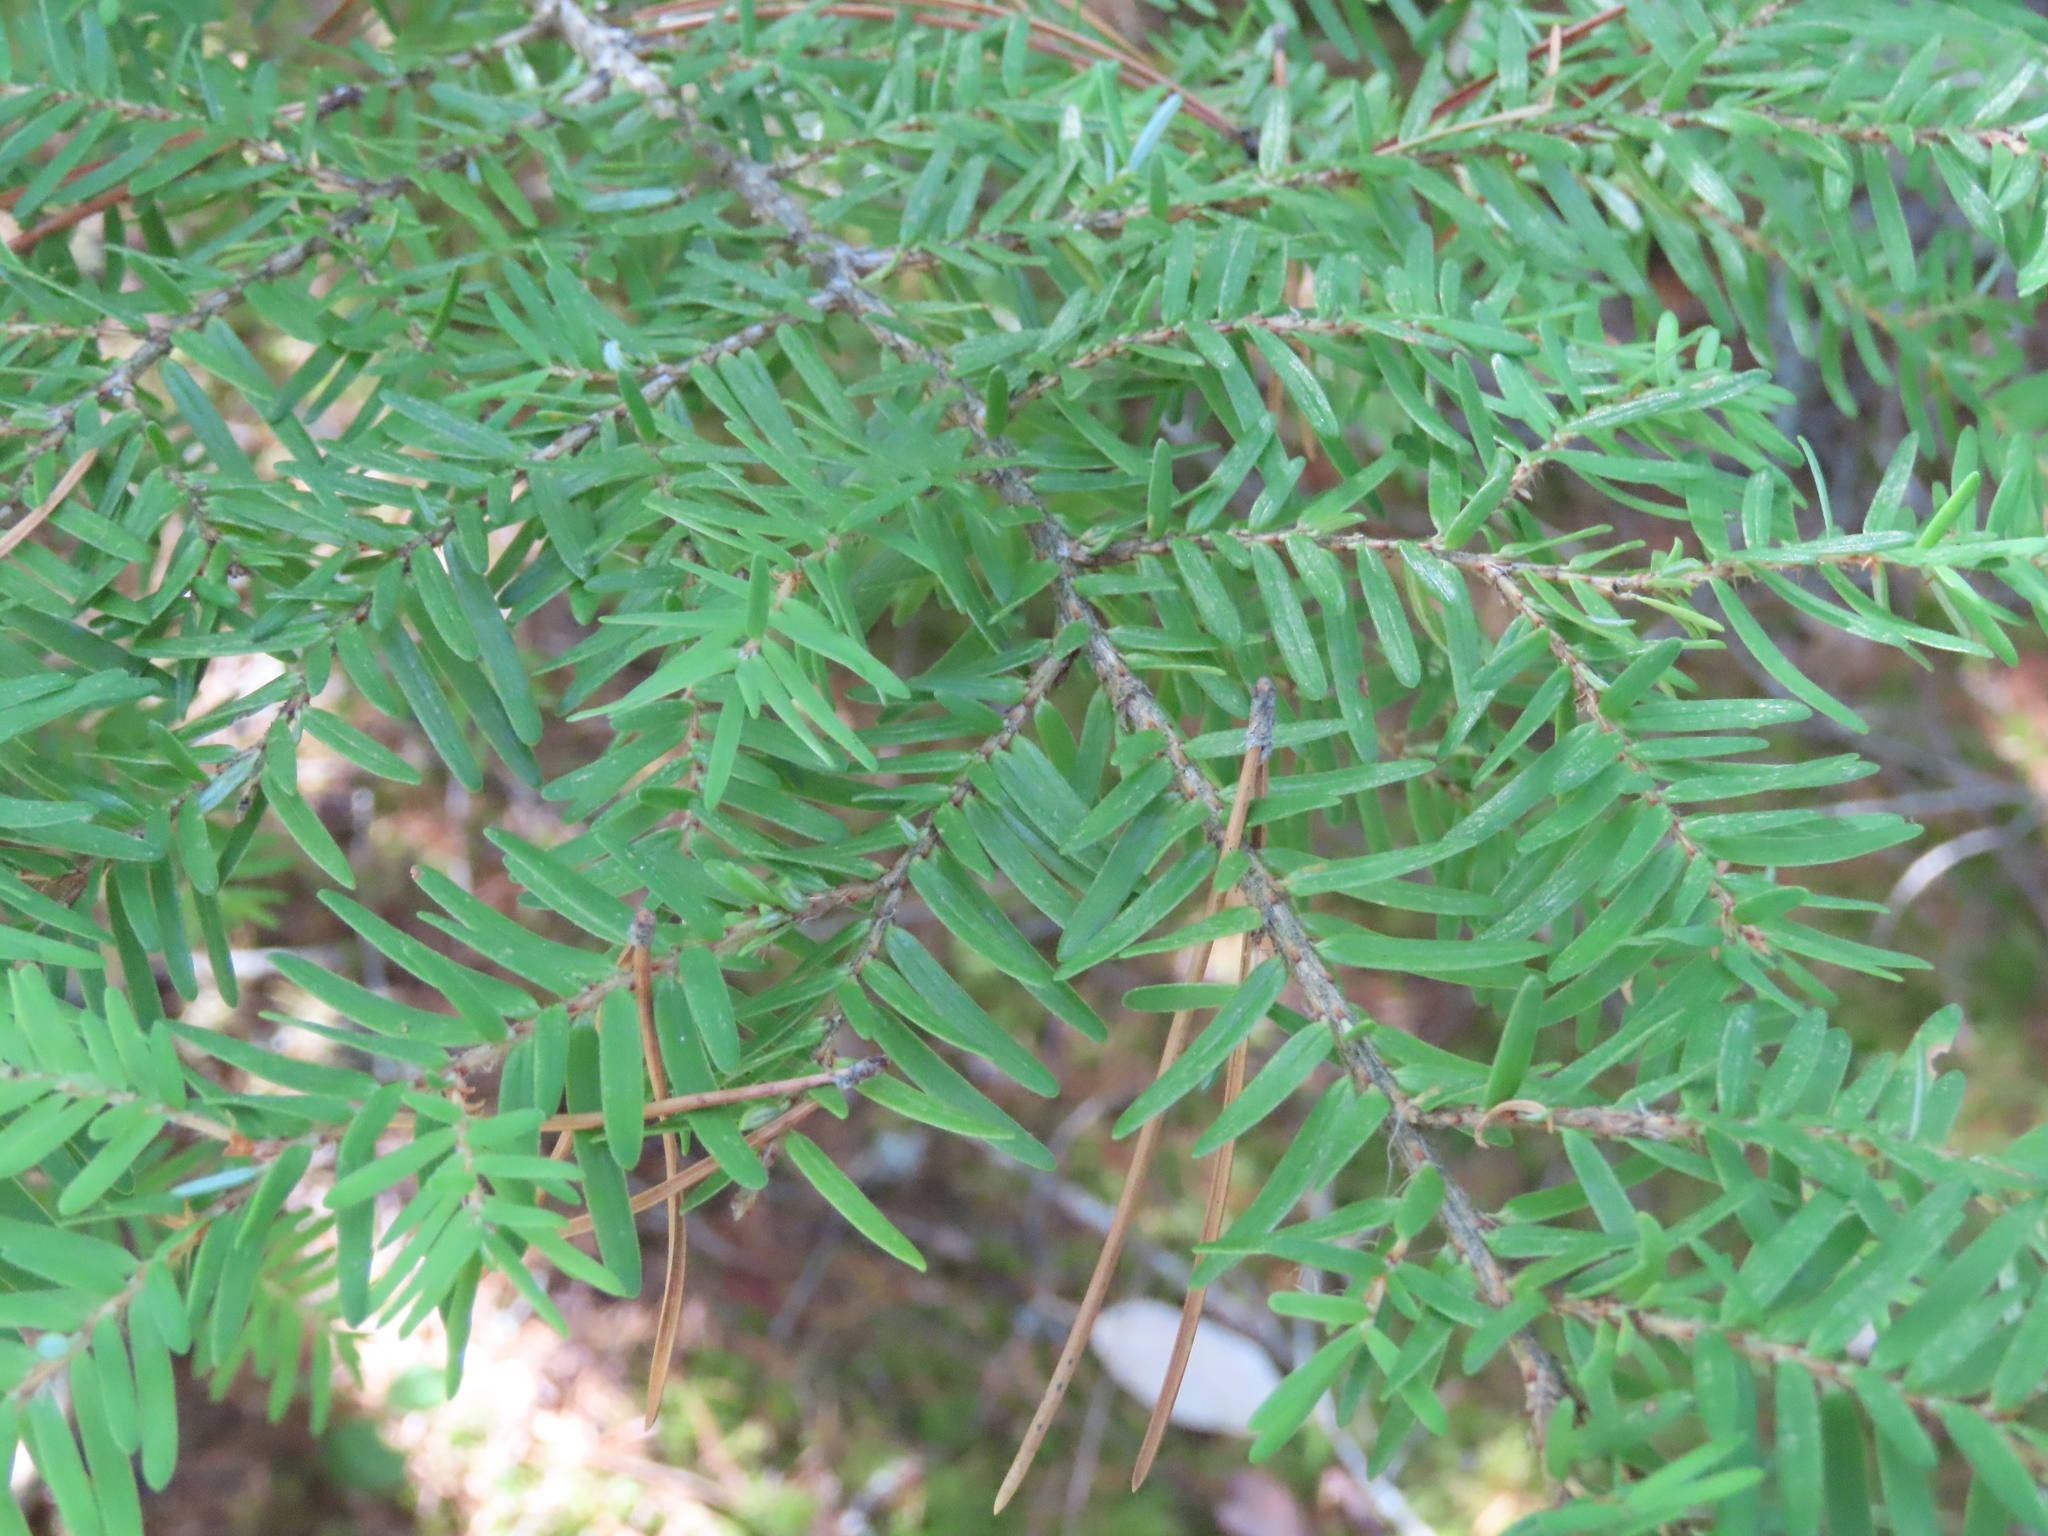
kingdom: Plantae
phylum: Tracheophyta
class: Pinopsida
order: Pinales
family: Pinaceae
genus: Tsuga
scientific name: Tsuga heterophylla
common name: Western hemlock
